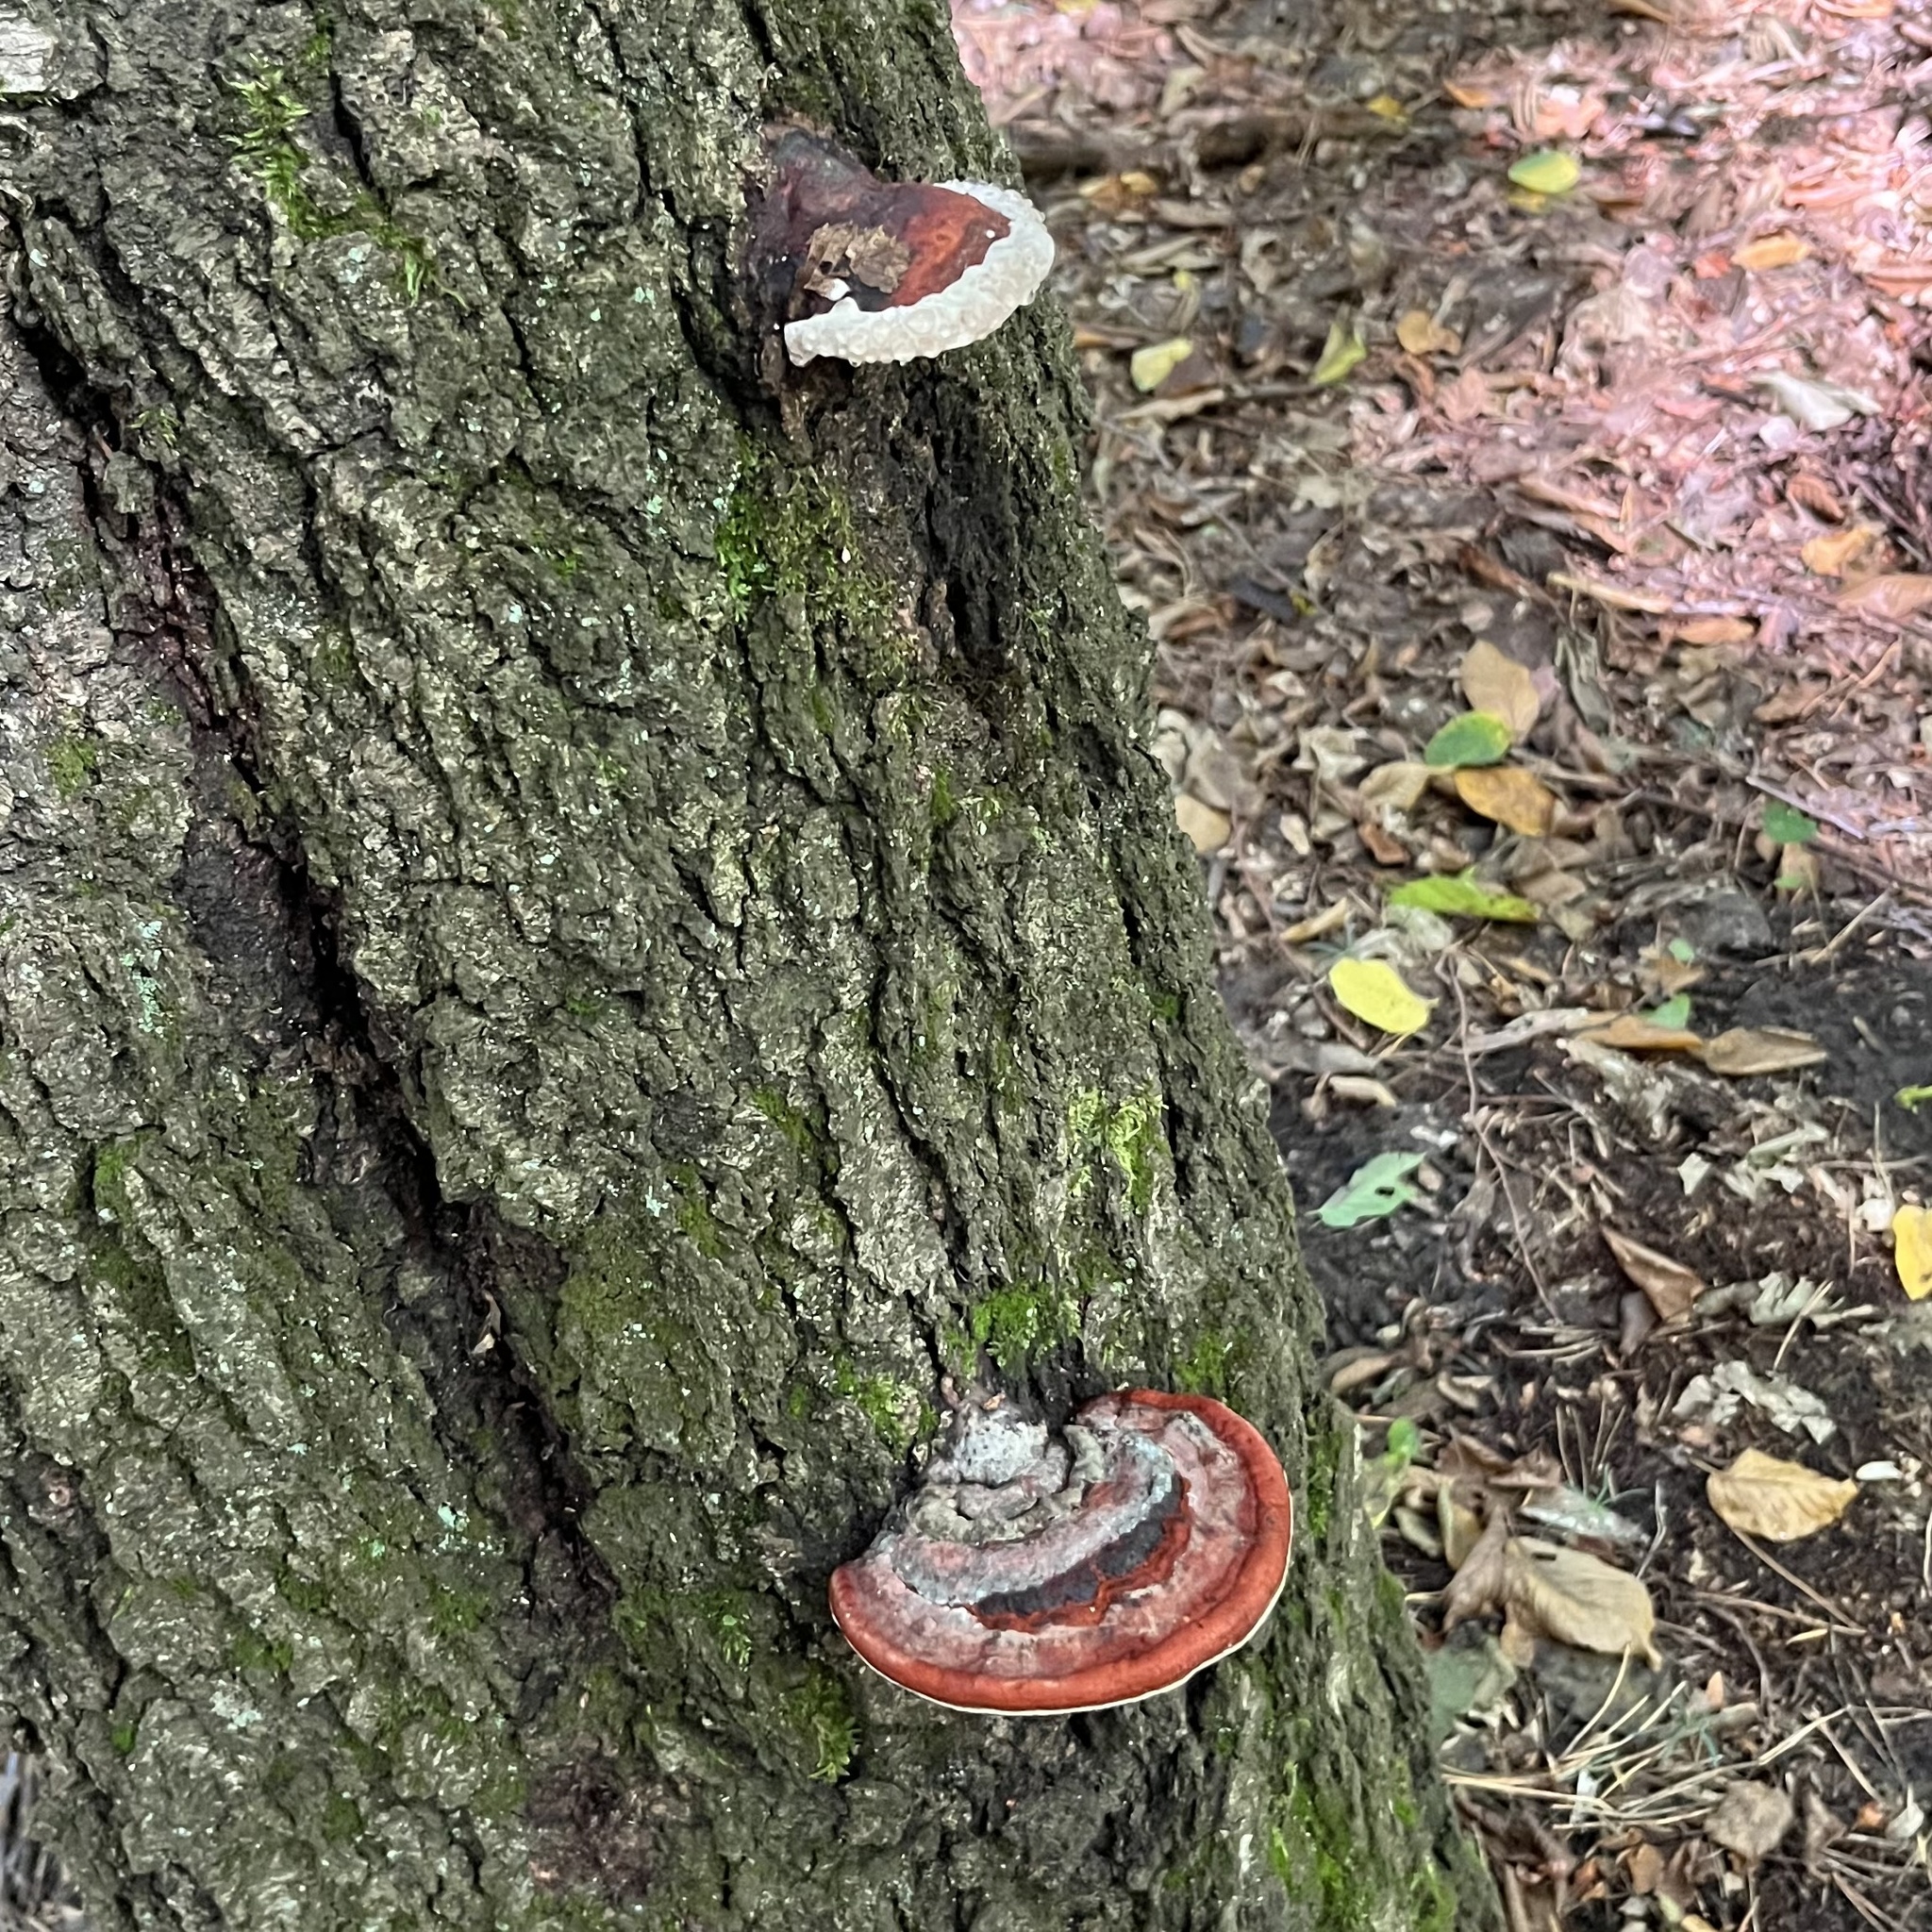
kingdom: Fungi
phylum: Basidiomycota
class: Agaricomycetes
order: Polyporales
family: Fomitopsidaceae
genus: Fomitopsis
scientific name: Fomitopsis pinicola
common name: Red-belted bracket
